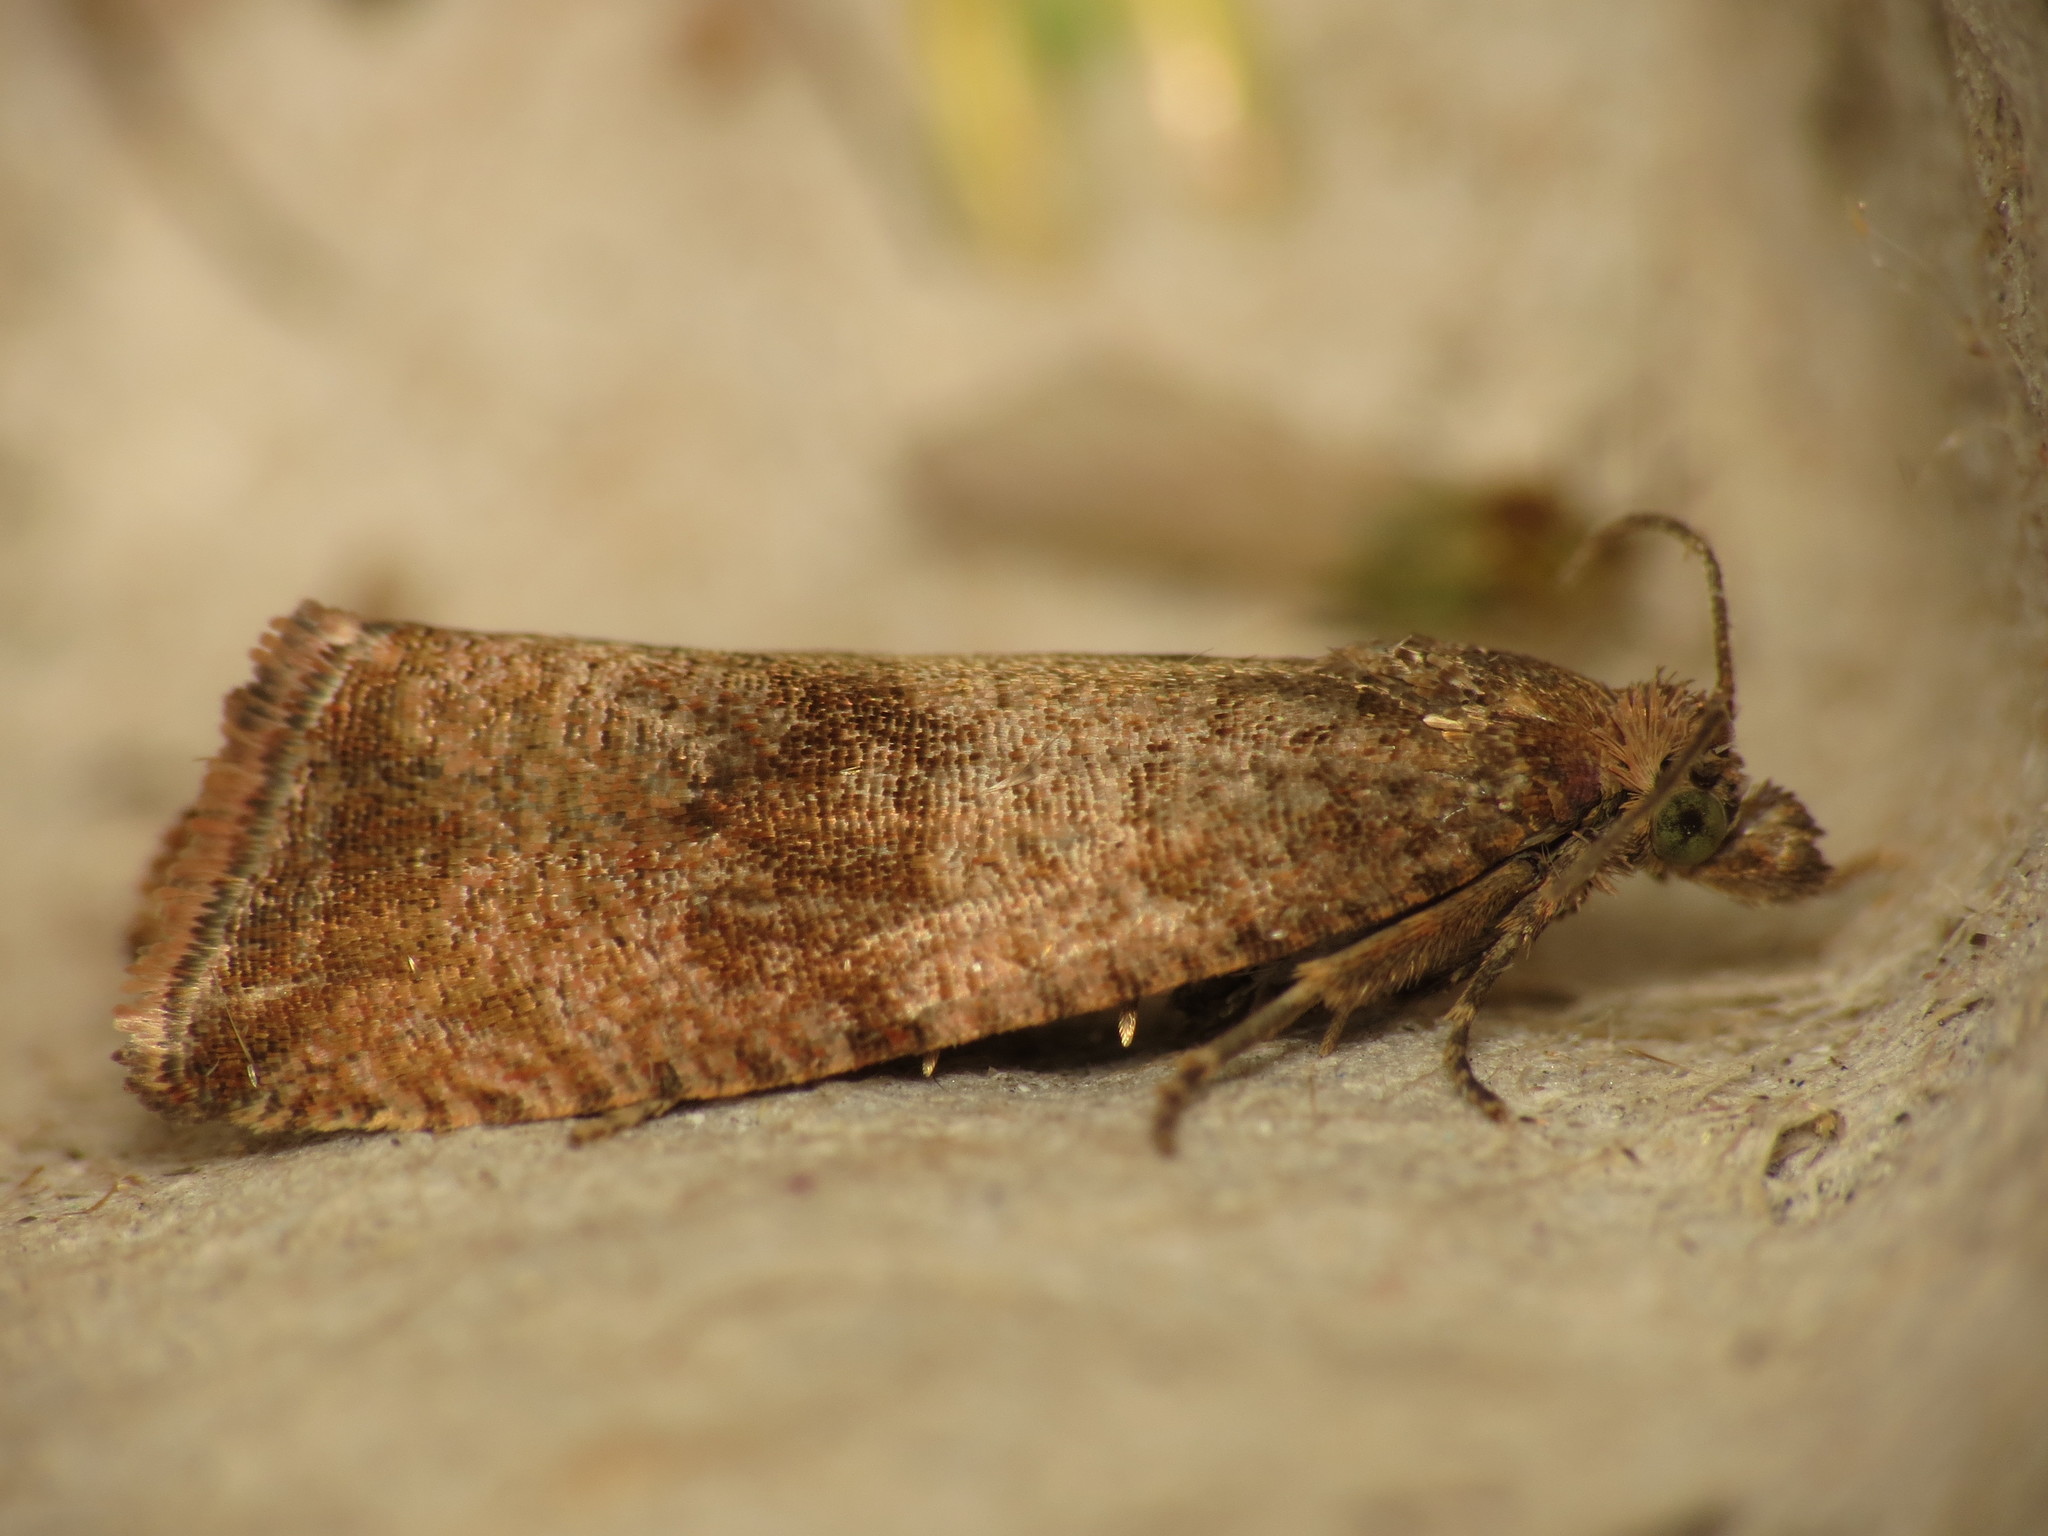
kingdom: Animalia
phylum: Arthropoda
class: Insecta
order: Lepidoptera
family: Tortricidae
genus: Celypha
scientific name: Celypha striana
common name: Barred marble
